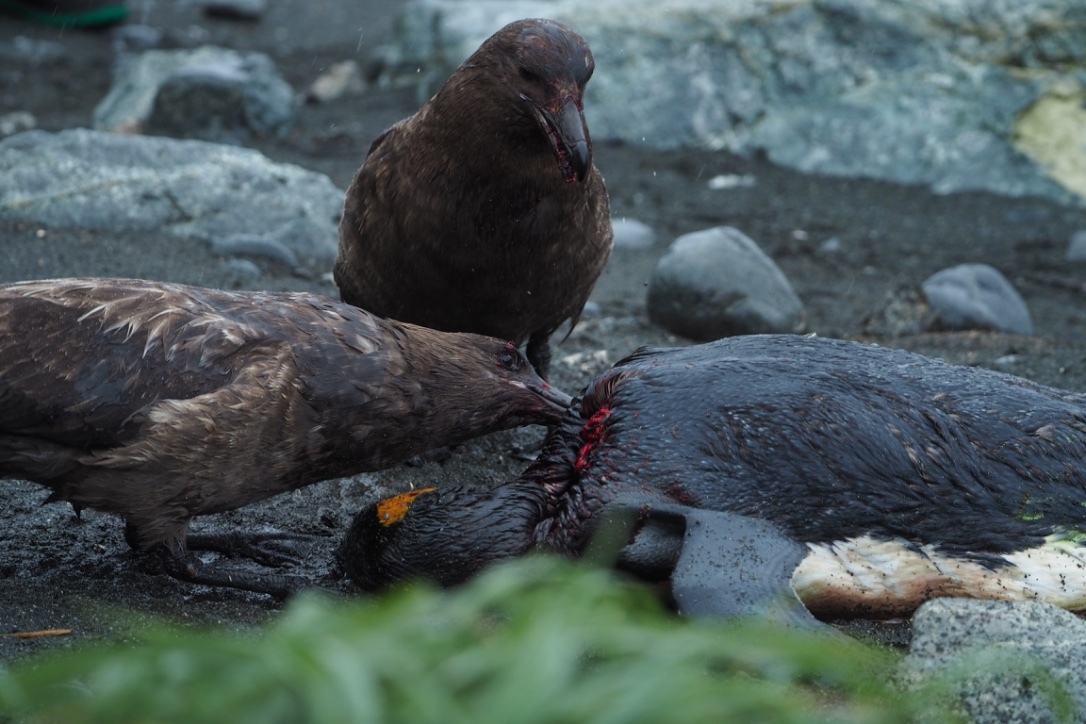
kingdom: Animalia
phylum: Chordata
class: Aves
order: Charadriiformes
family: Stercorariidae
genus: Stercorarius
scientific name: Stercorarius antarcticus
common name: Brown skua
